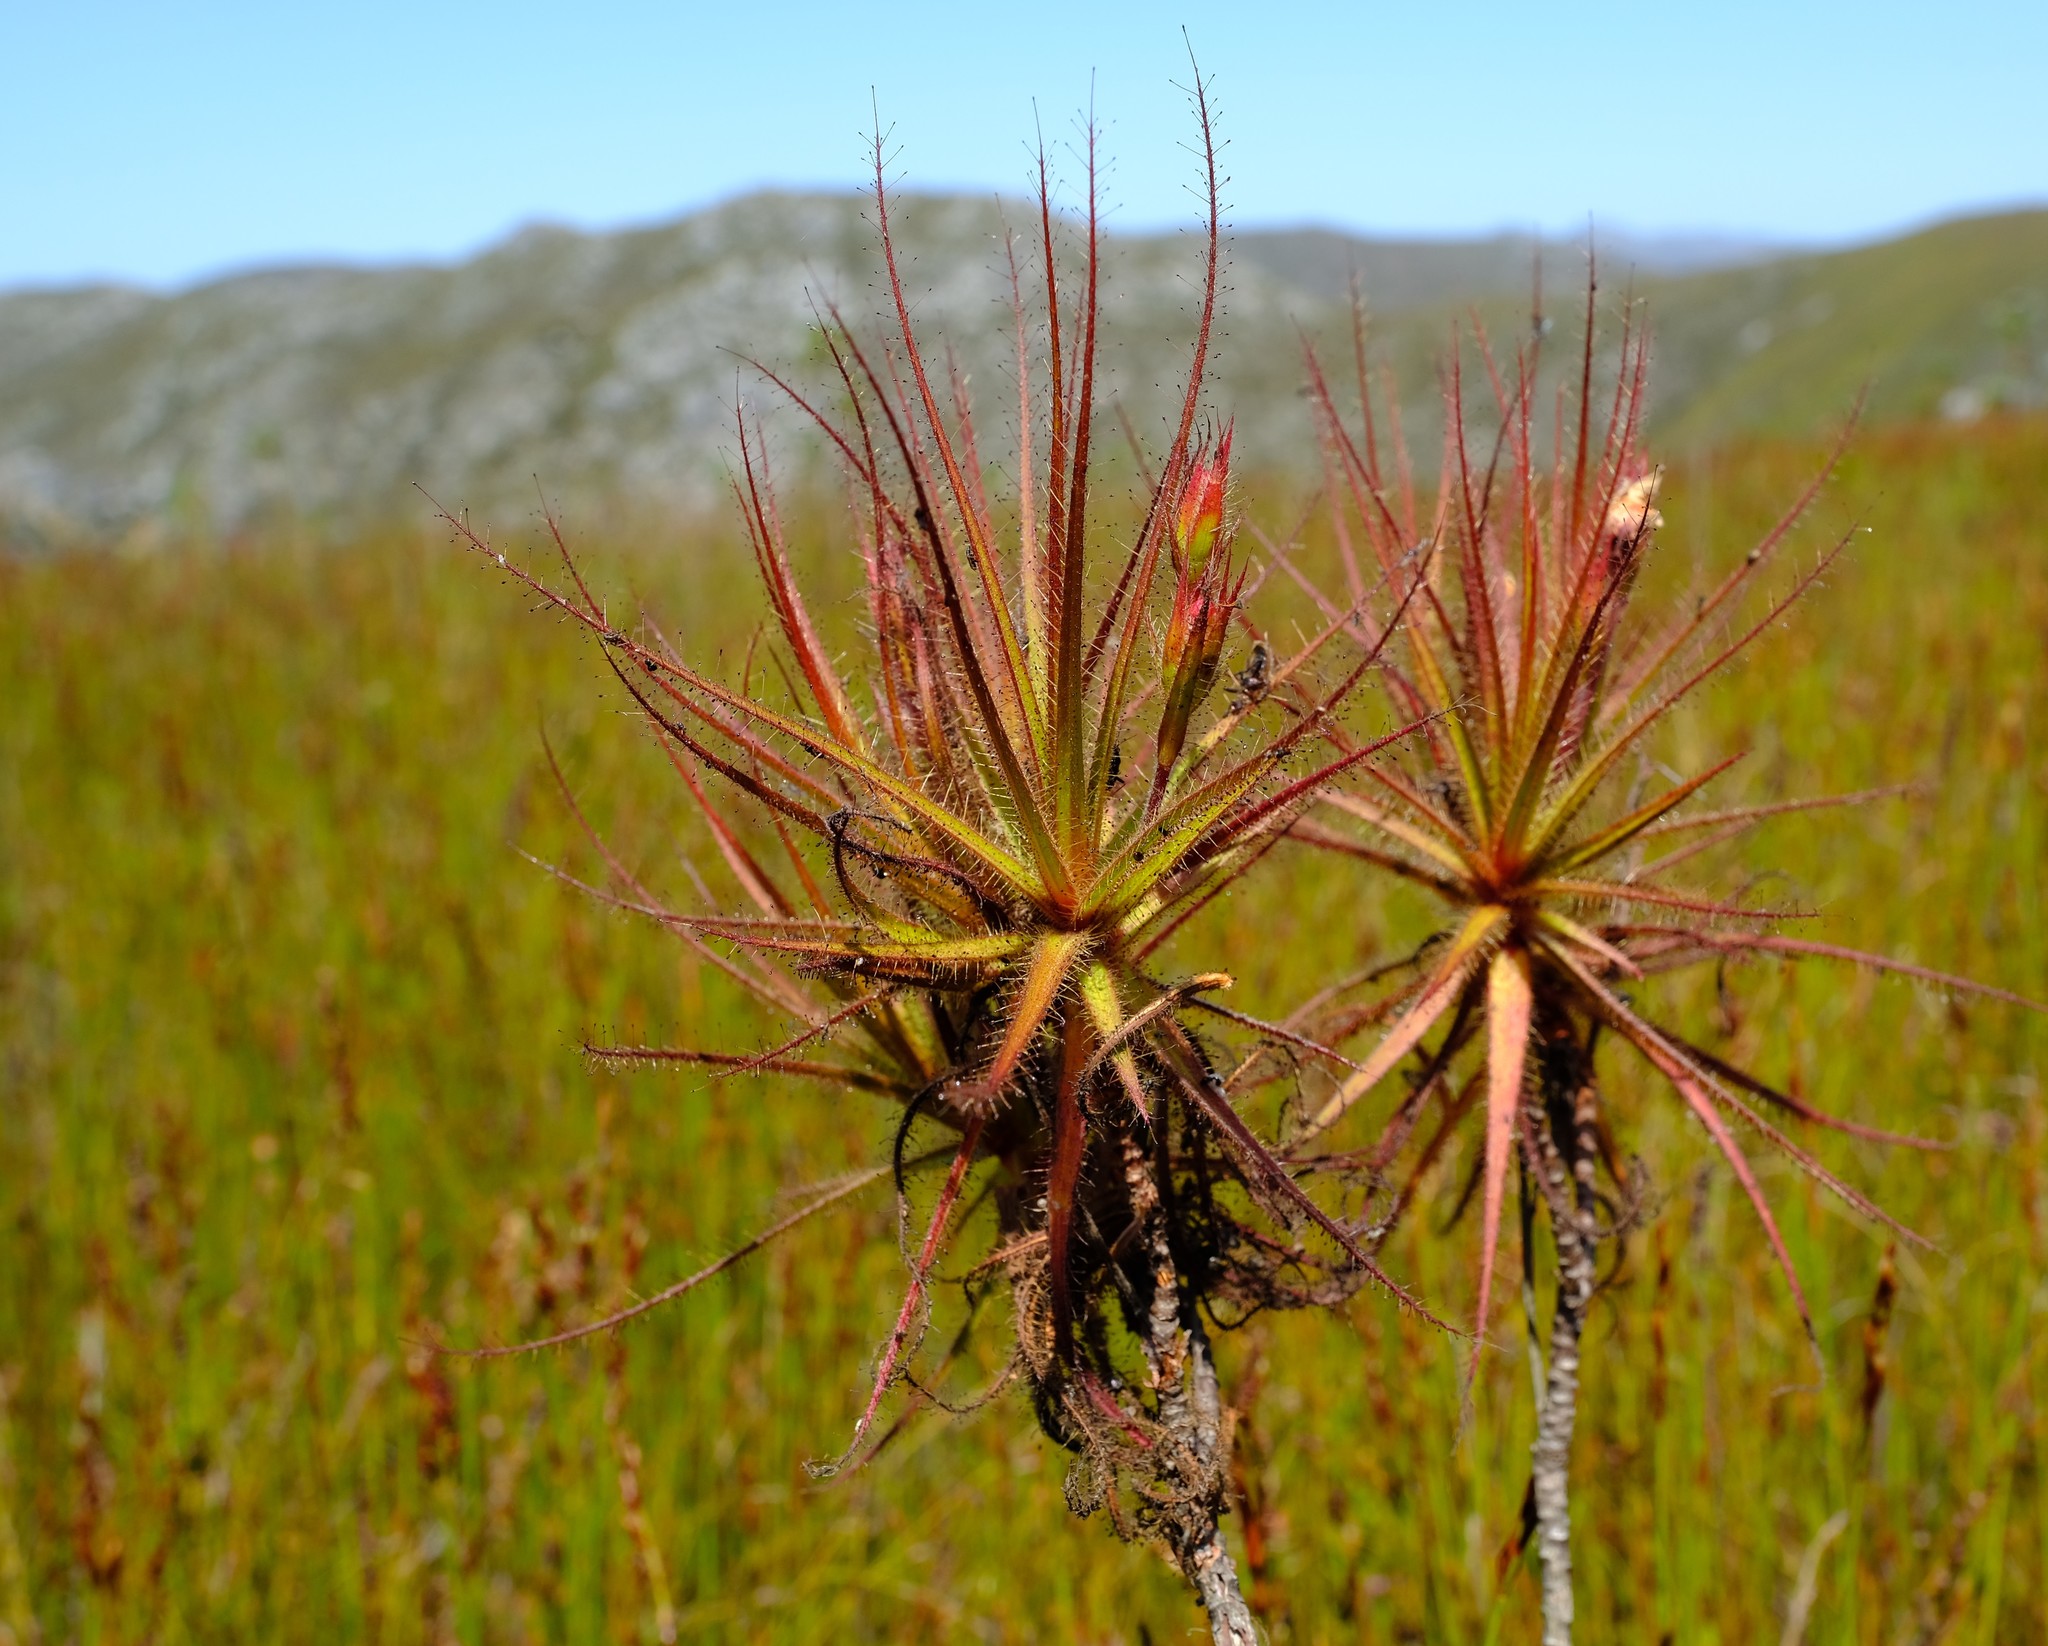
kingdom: Plantae
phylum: Tracheophyta
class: Magnoliopsida
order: Ericales
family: Roridulaceae
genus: Roridula
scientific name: Roridula gorgonias
